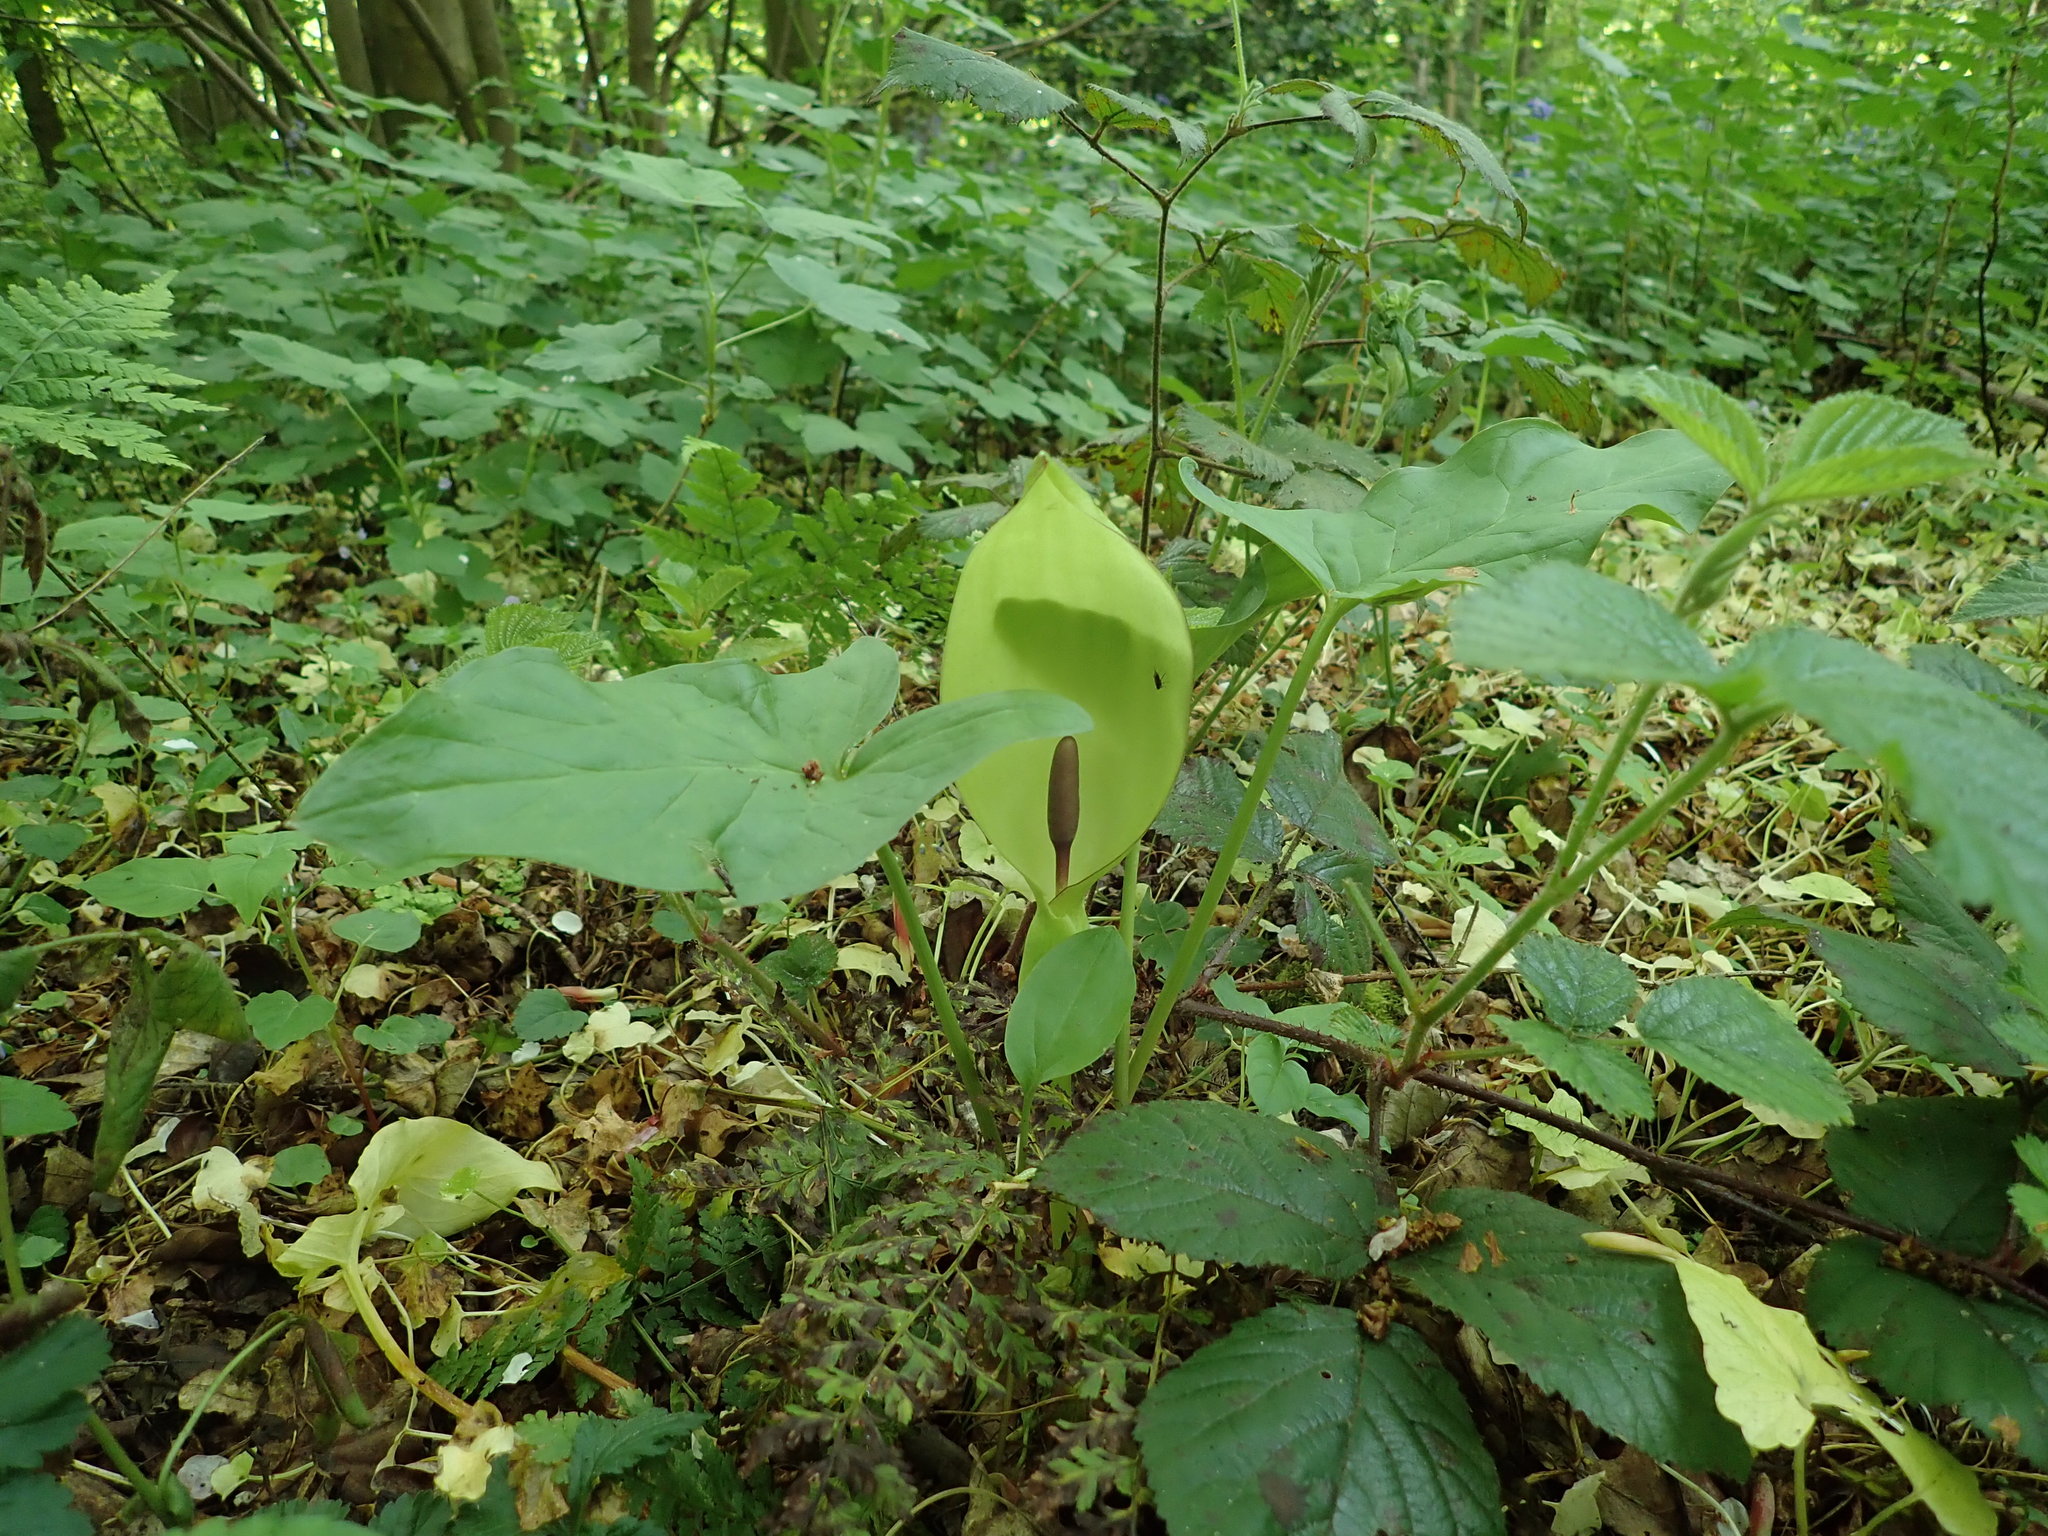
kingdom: Plantae
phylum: Tracheophyta
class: Liliopsida
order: Alismatales
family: Araceae
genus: Arum
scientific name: Arum maculatum
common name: Lords-and-ladies
